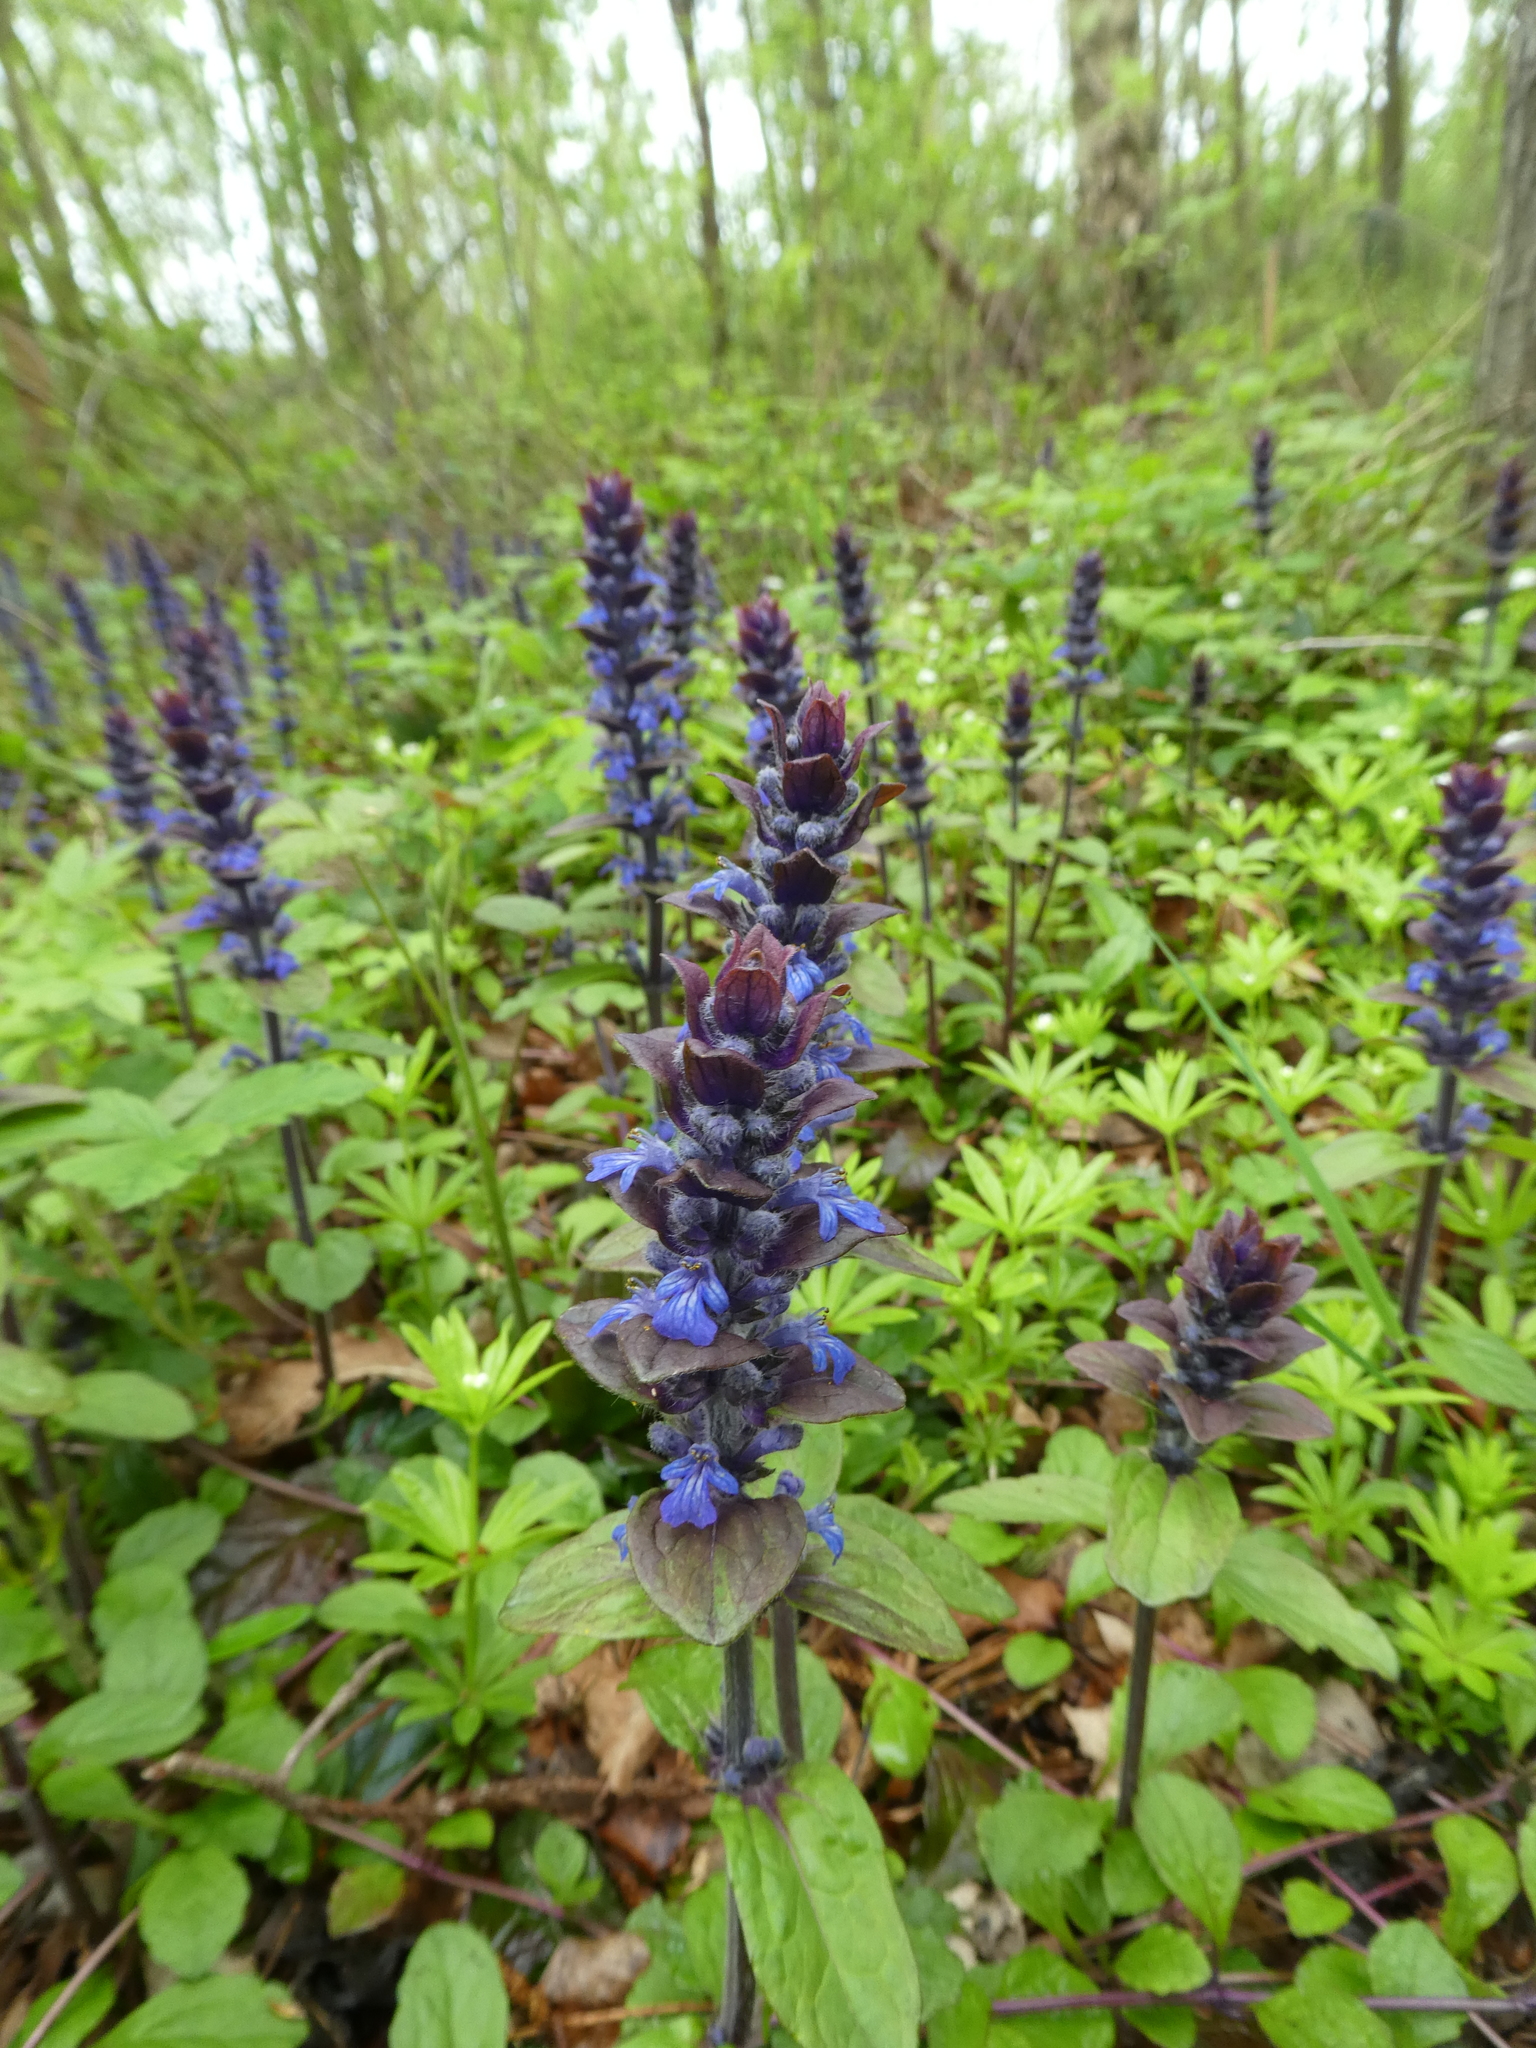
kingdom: Plantae
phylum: Tracheophyta
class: Magnoliopsida
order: Lamiales
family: Lamiaceae
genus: Ajuga
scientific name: Ajuga reptans
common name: Bugle
